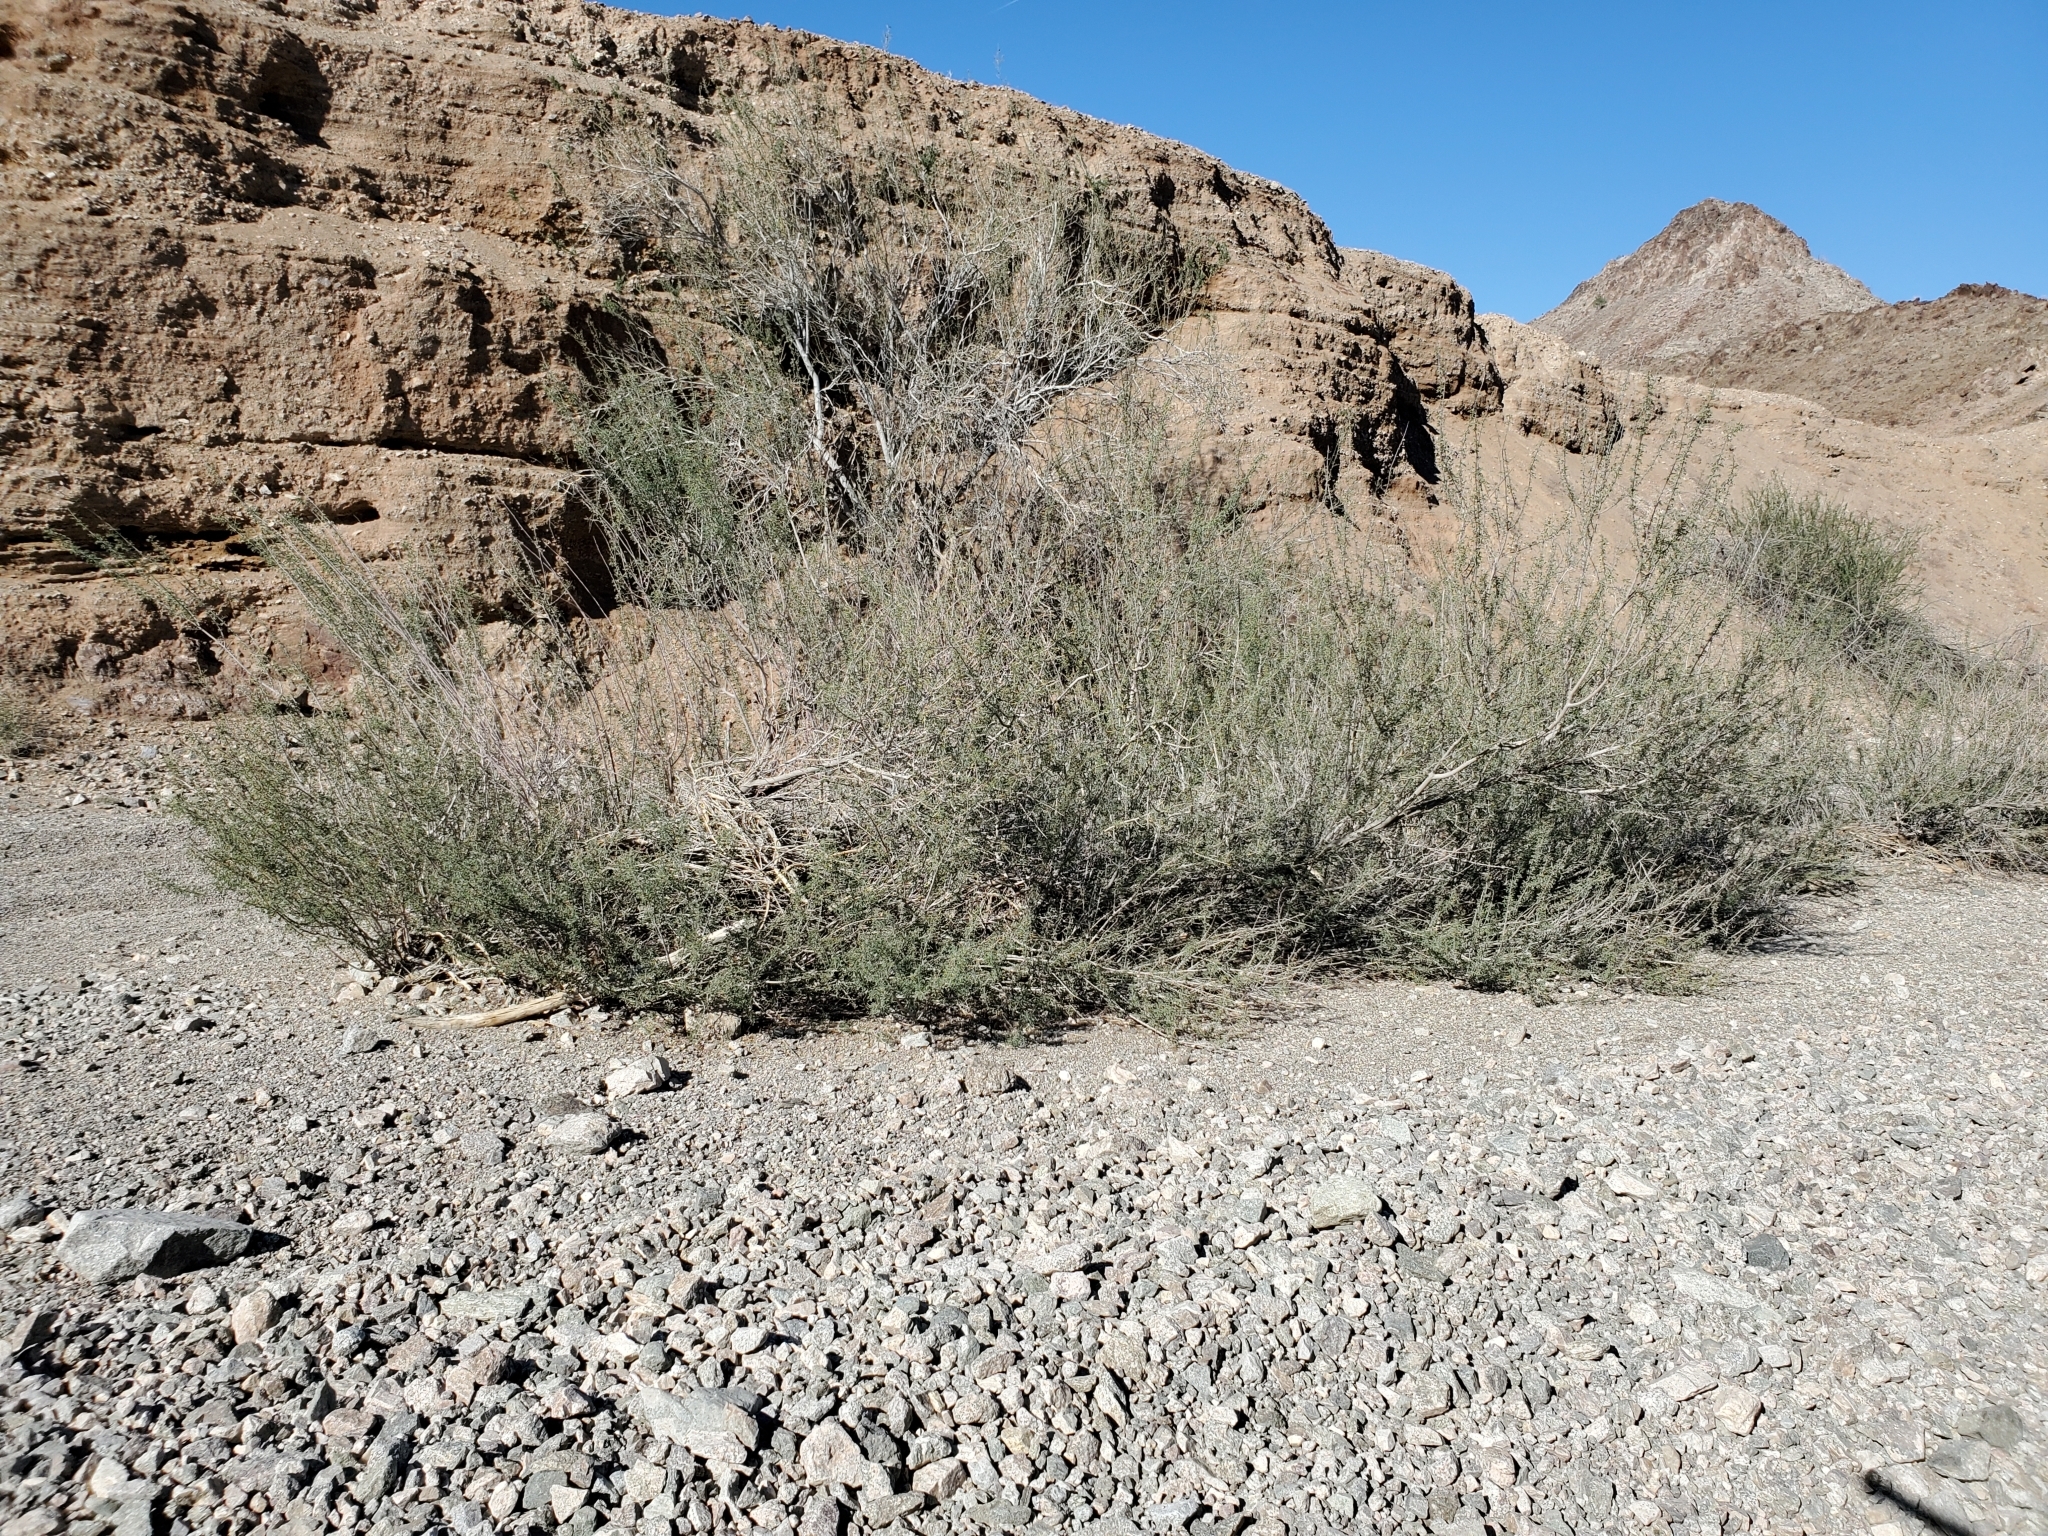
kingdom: Plantae
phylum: Tracheophyta
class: Magnoliopsida
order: Fabales
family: Fabaceae
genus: Senegalia
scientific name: Senegalia greggii
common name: Texas-mimosa
